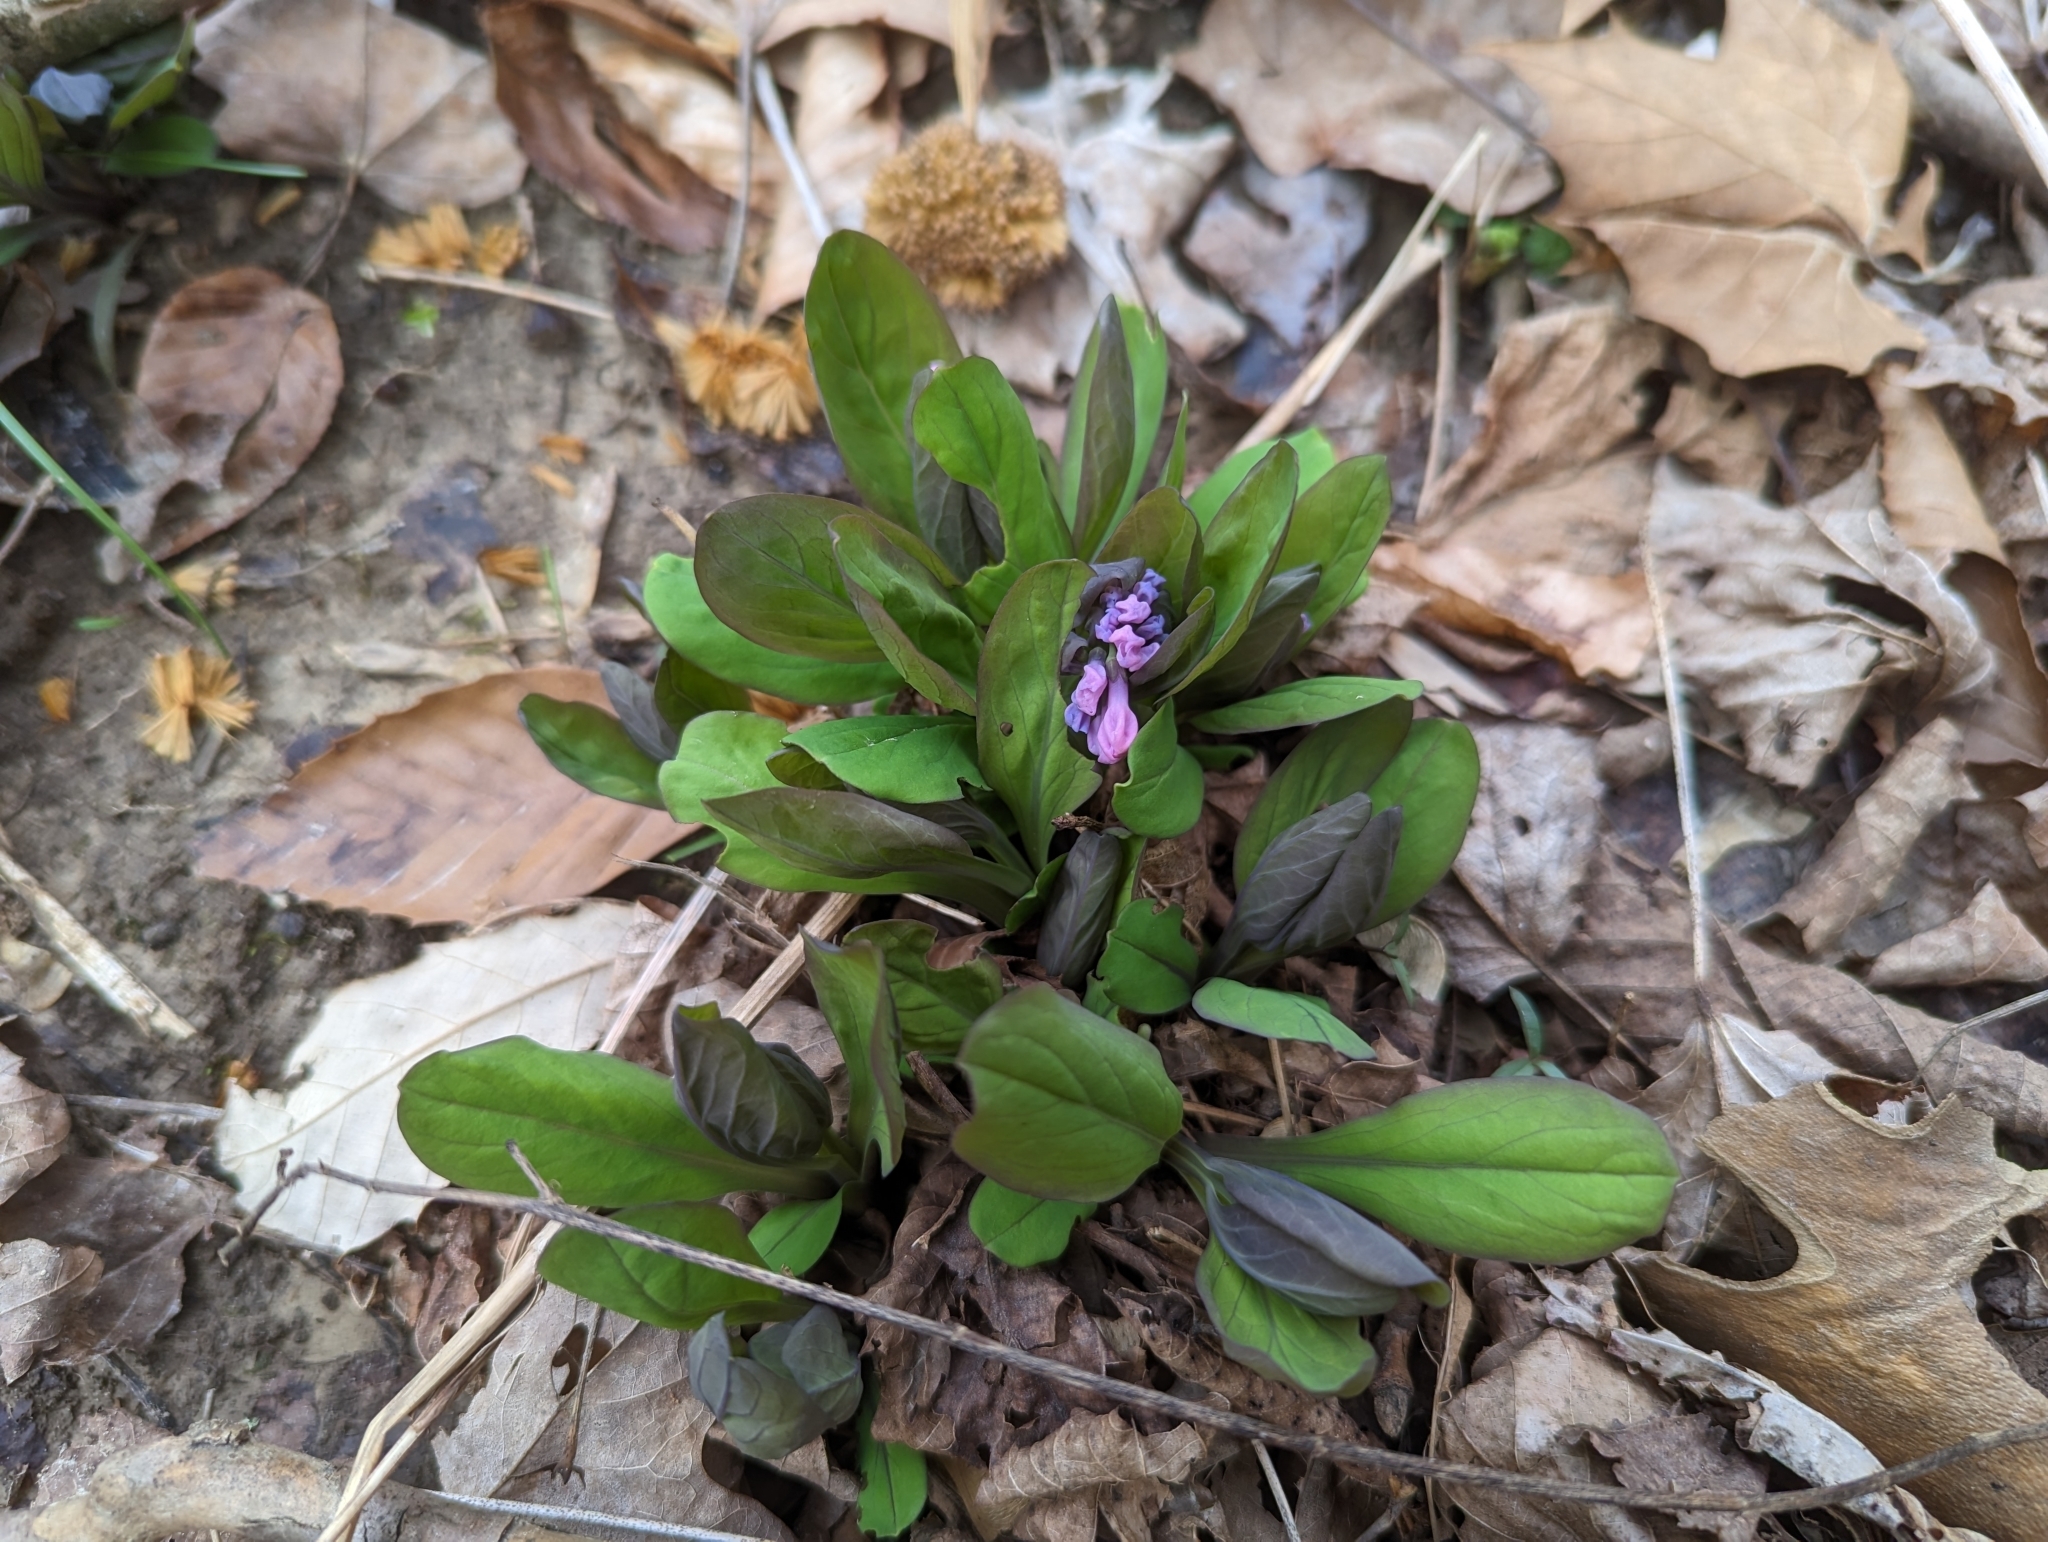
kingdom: Plantae
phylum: Tracheophyta
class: Magnoliopsida
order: Boraginales
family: Boraginaceae
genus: Mertensia
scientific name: Mertensia virginica
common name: Virginia bluebells
